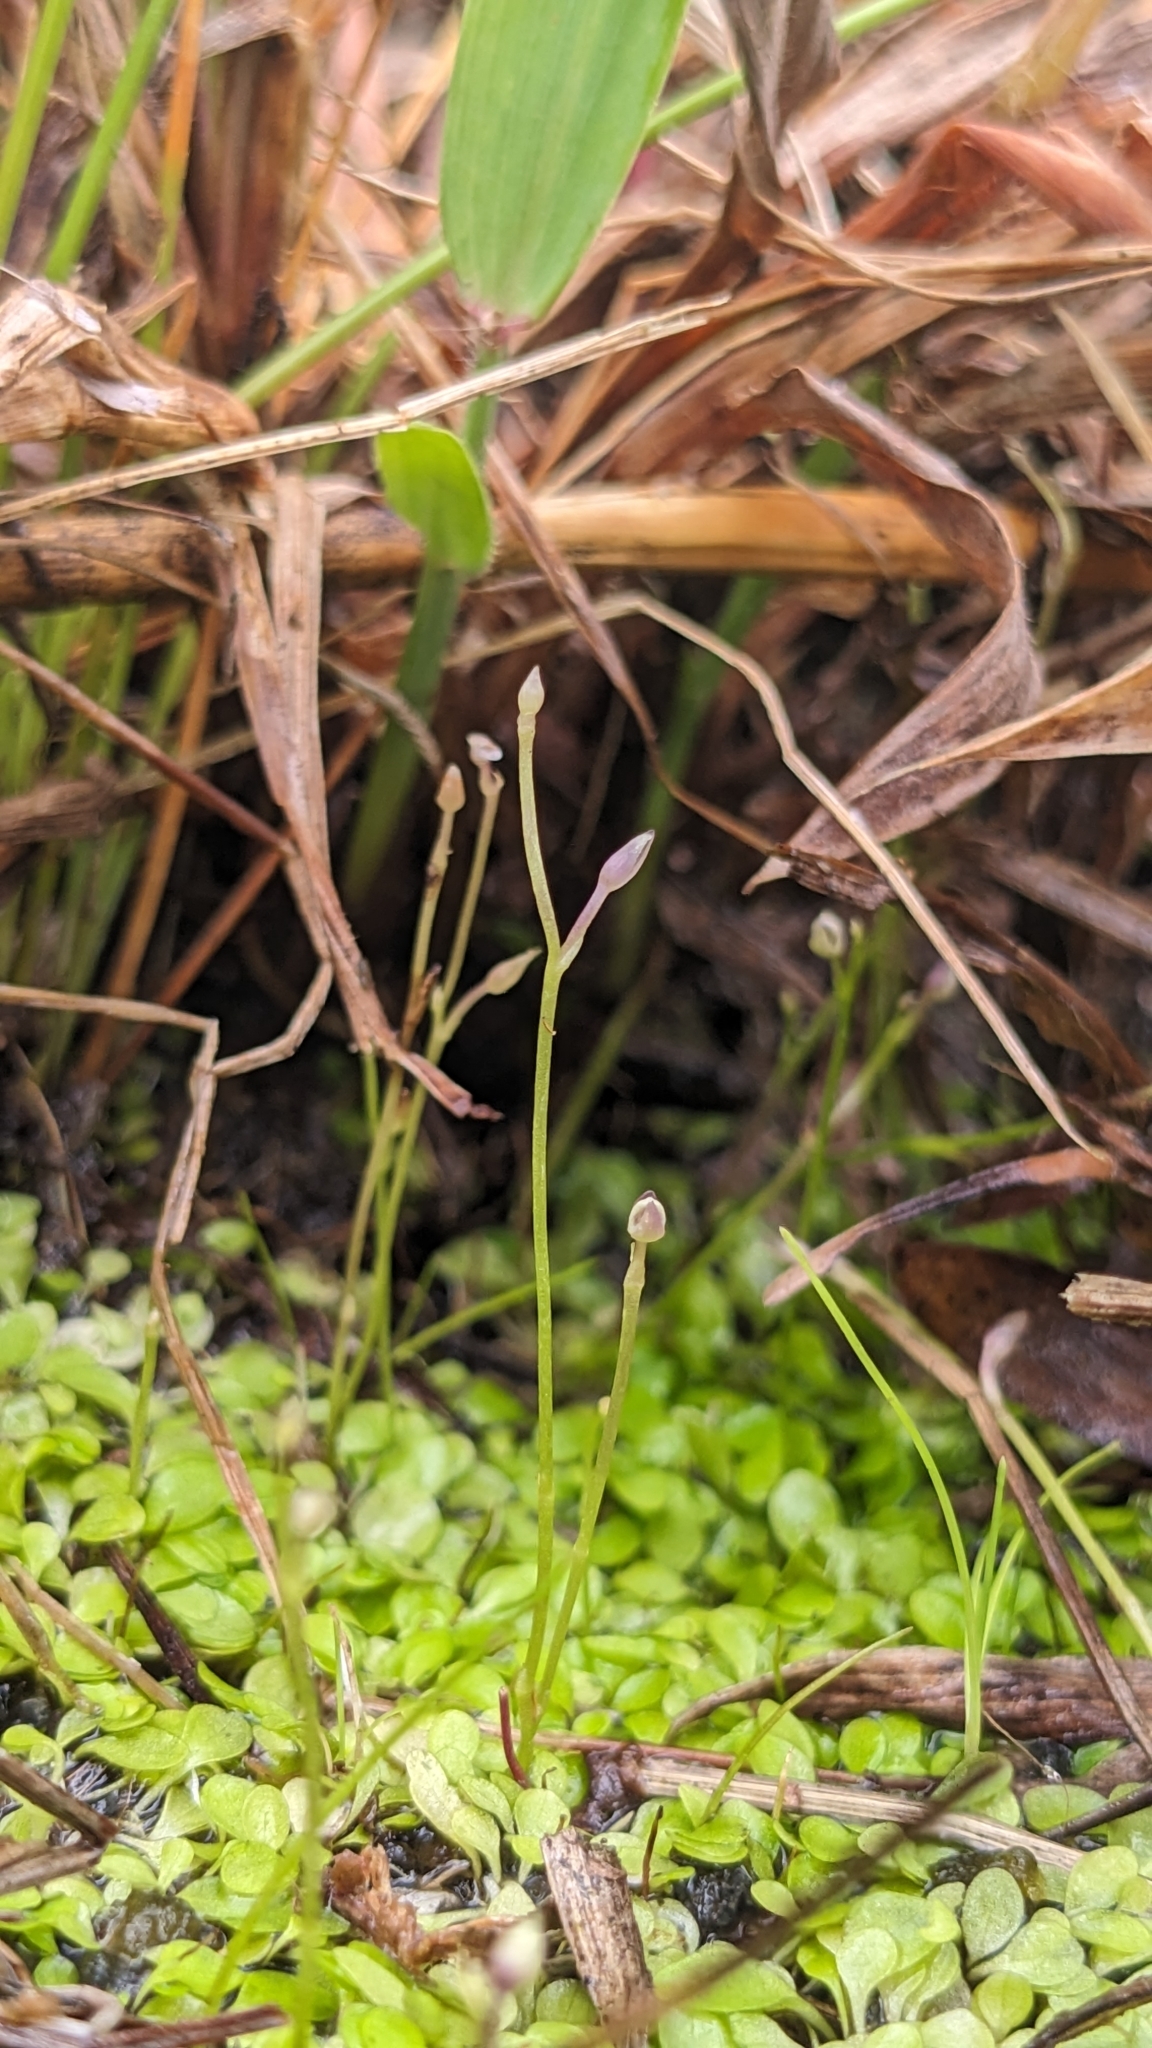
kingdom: Plantae
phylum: Tracheophyta
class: Magnoliopsida
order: Lamiales
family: Lentibulariaceae
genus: Utricularia
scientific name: Utricularia heterosepala
